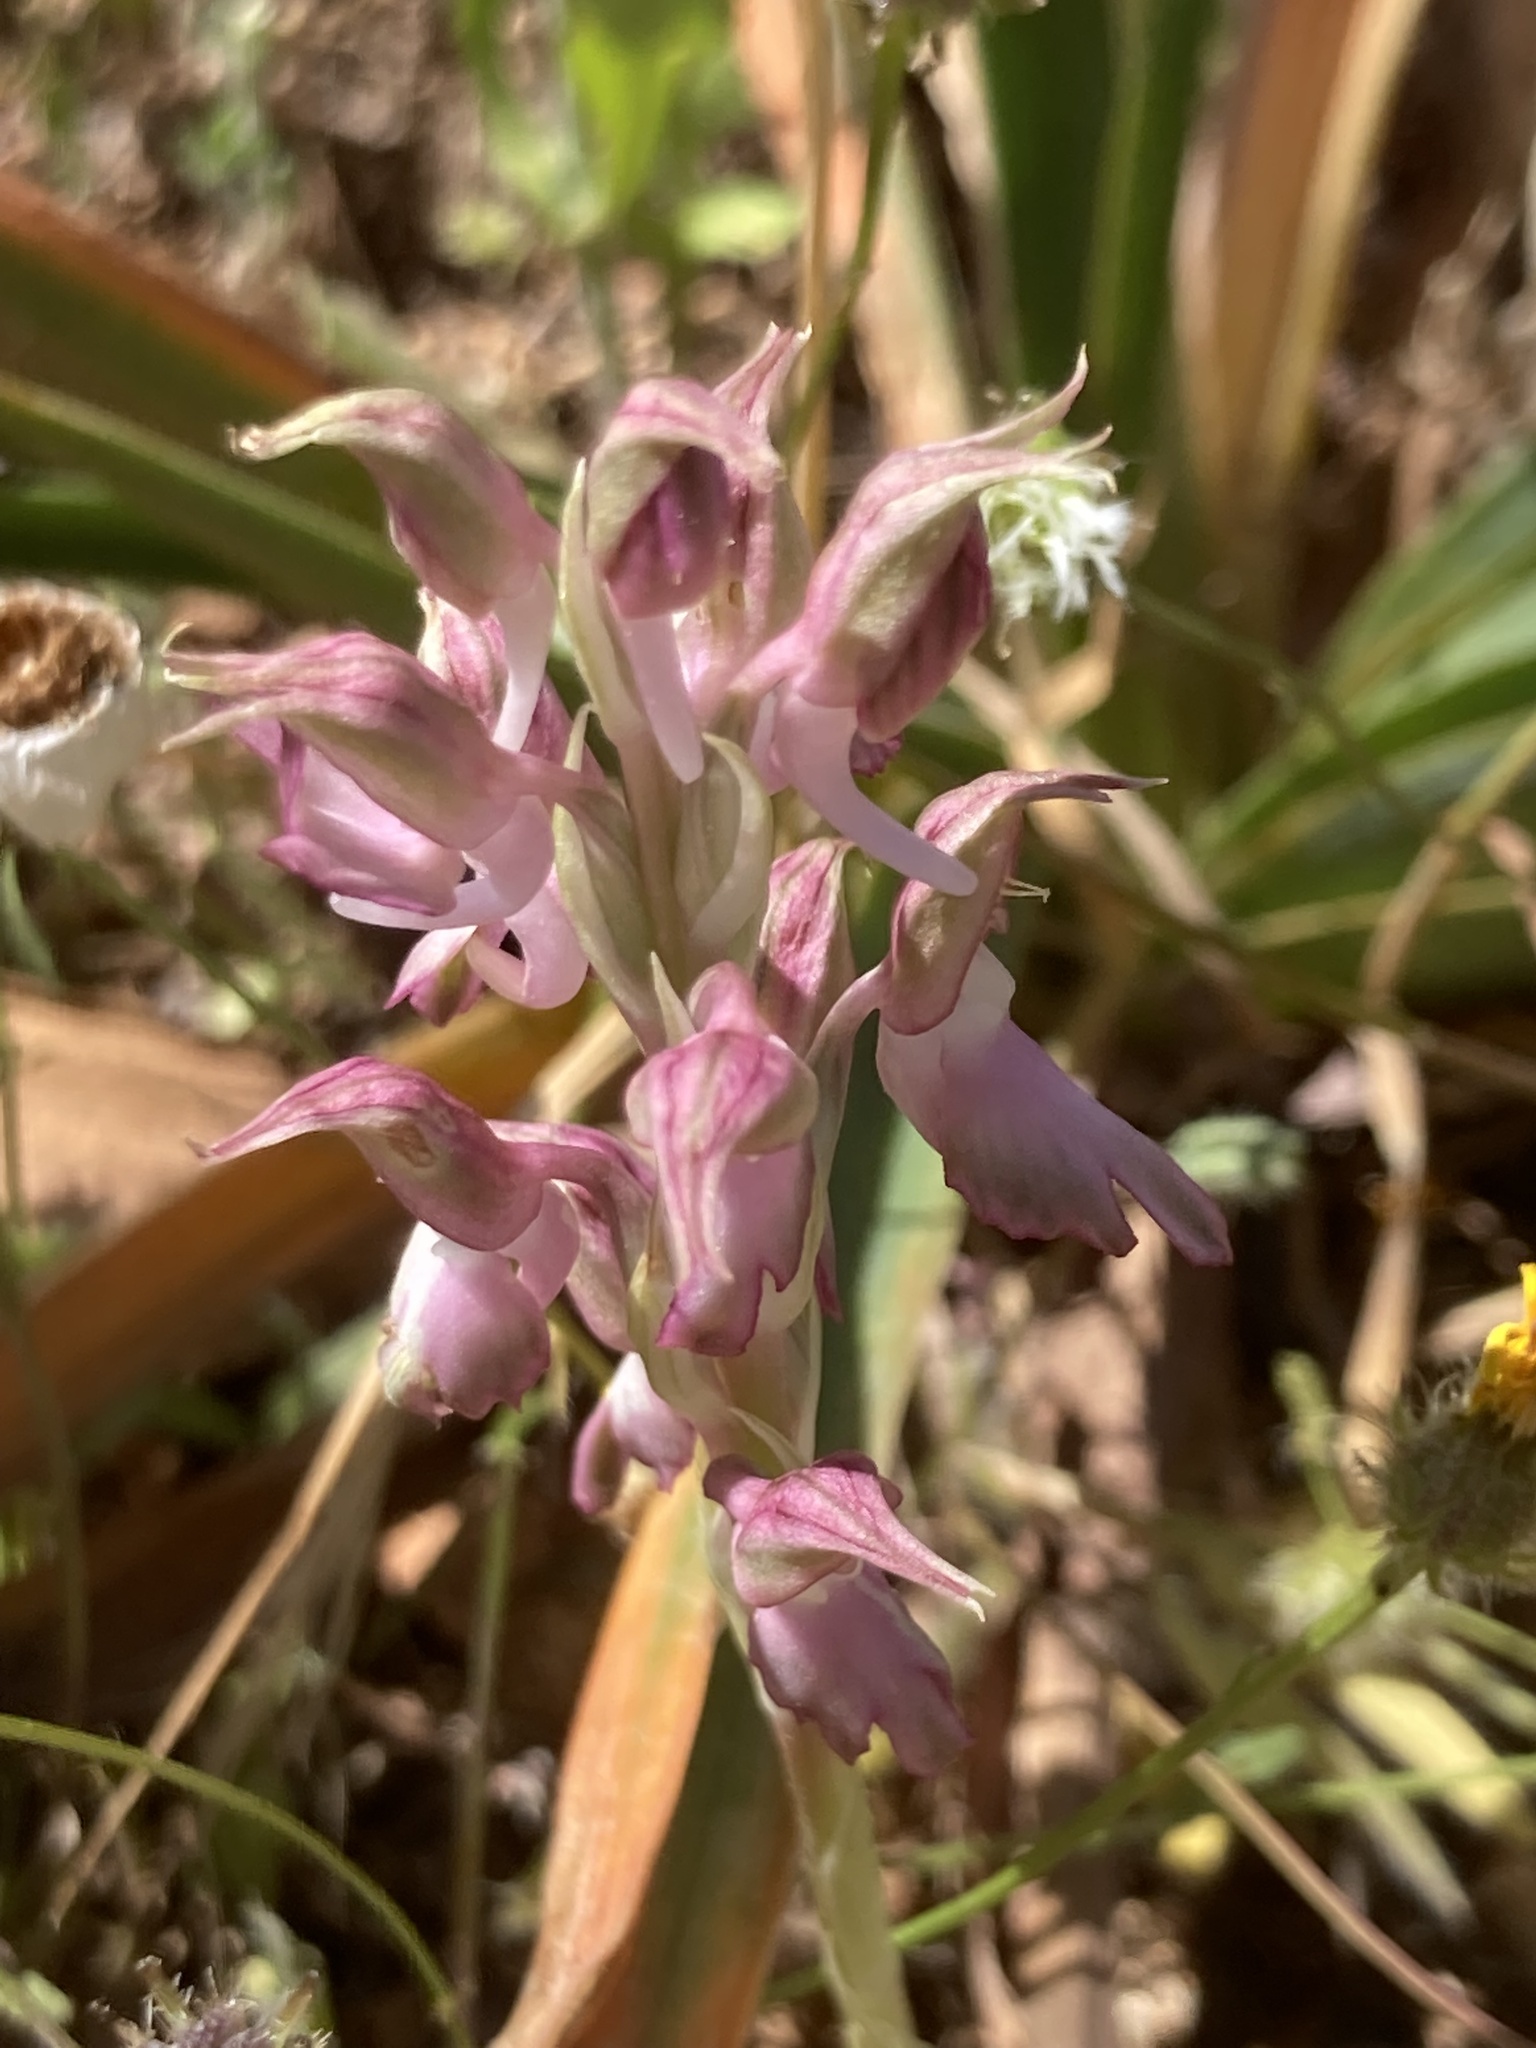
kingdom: Plantae
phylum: Tracheophyta
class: Liliopsida
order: Asparagales
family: Orchidaceae
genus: Anacamptis
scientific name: Anacamptis sancta
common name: Holy orchid
